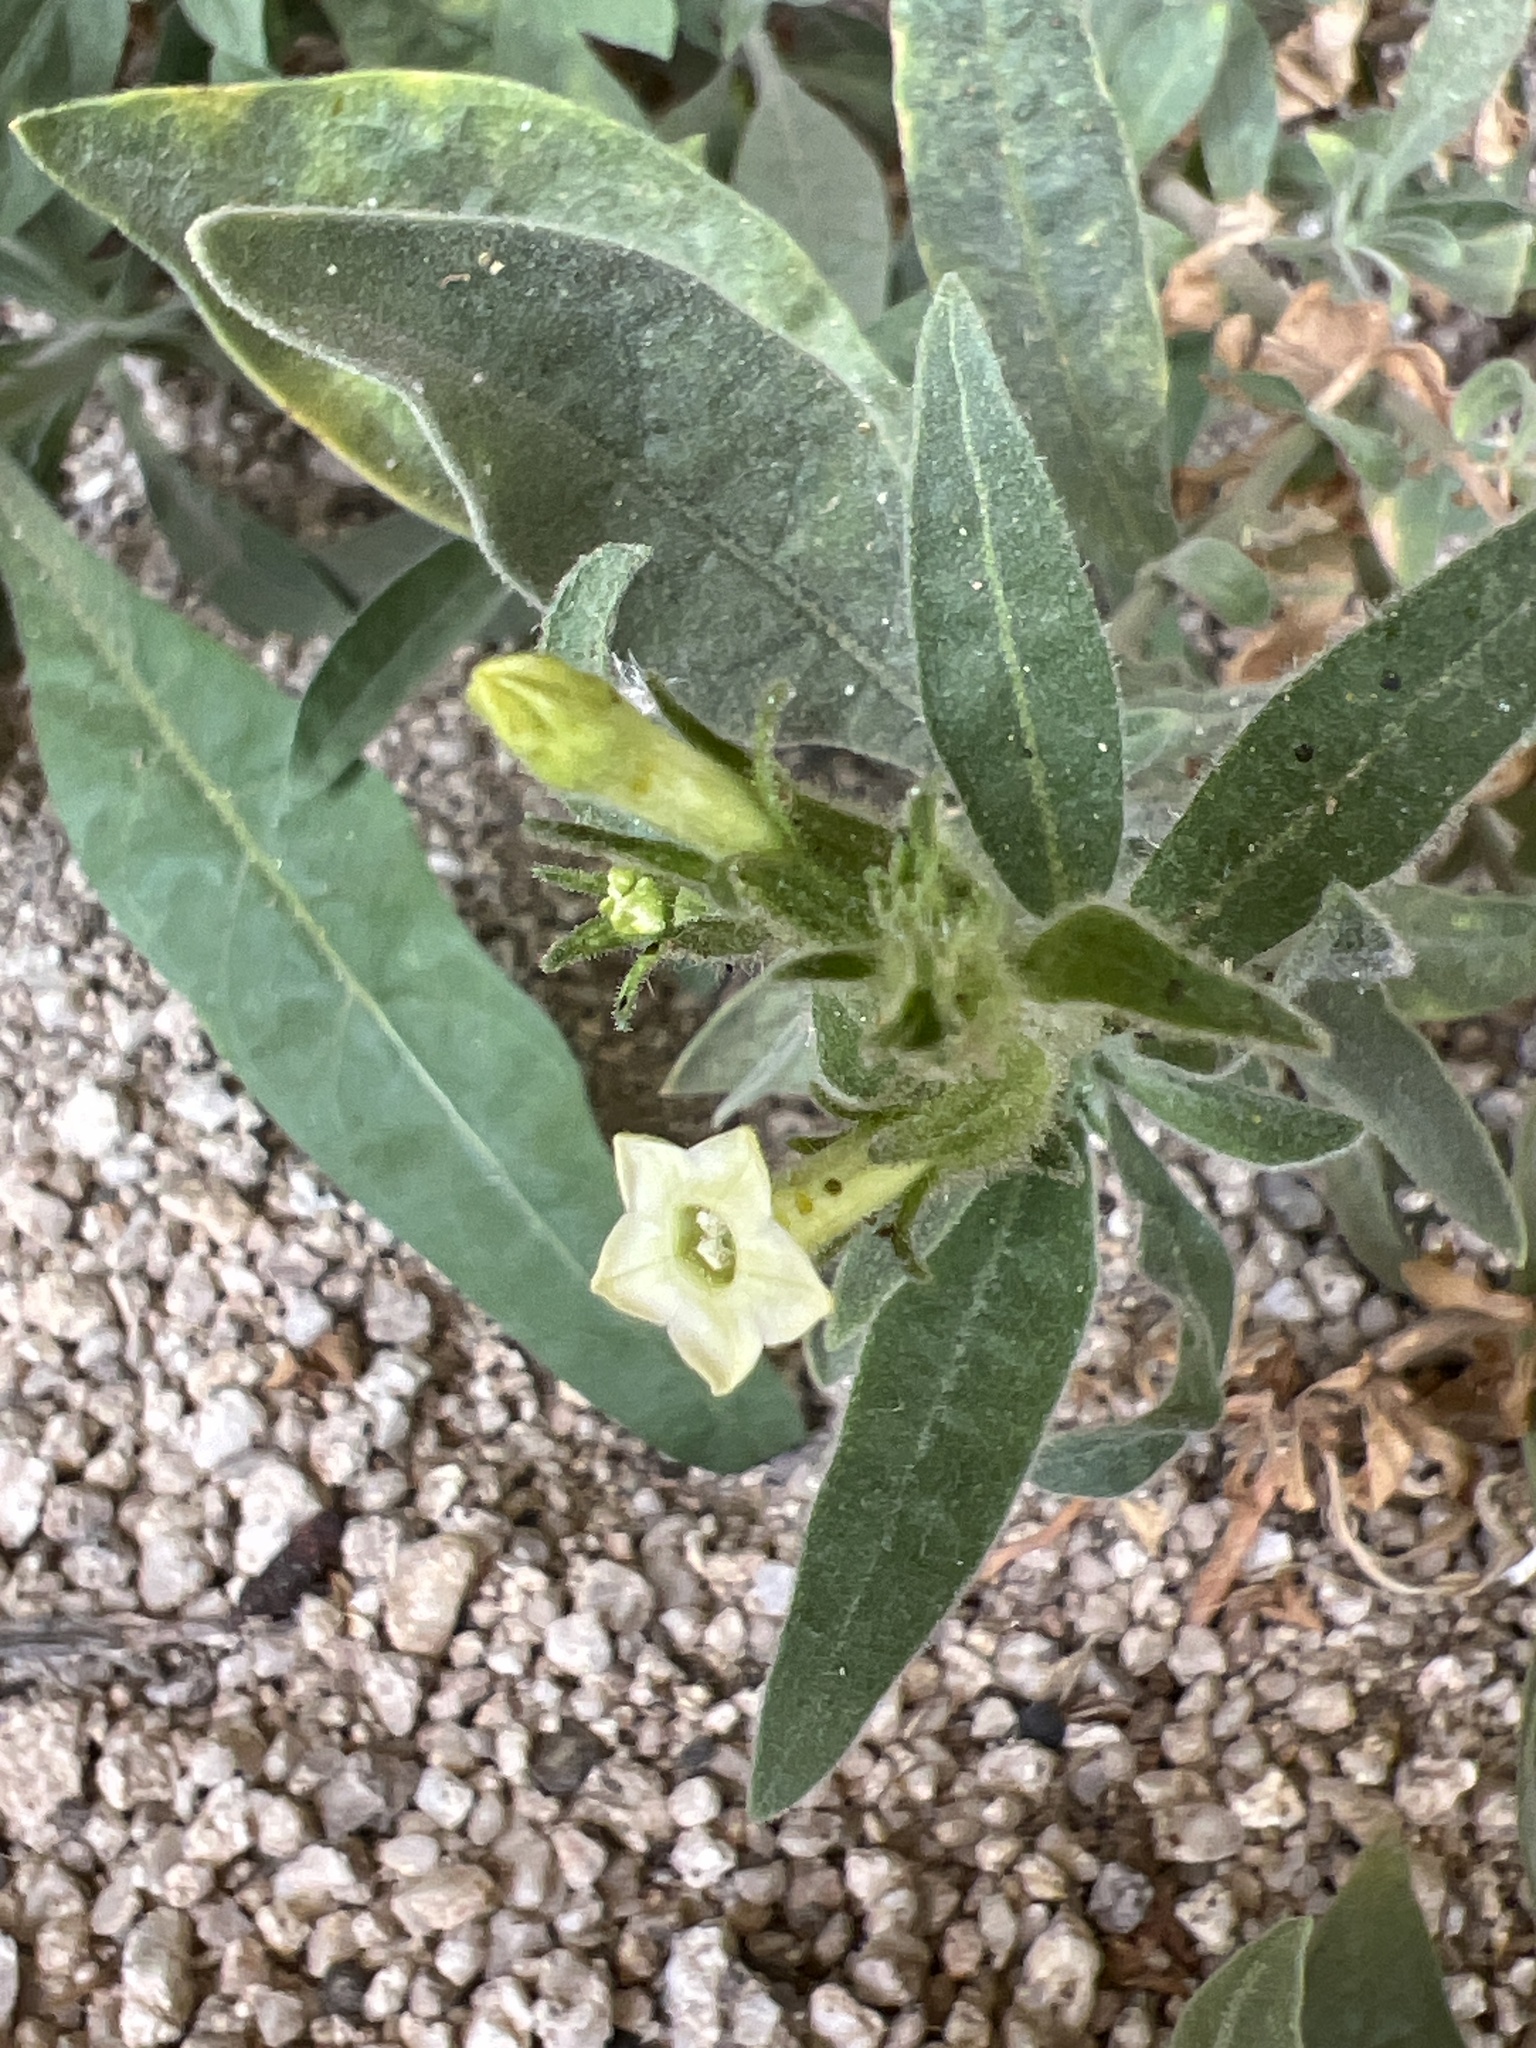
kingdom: Plantae
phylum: Tracheophyta
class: Magnoliopsida
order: Solanales
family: Solanaceae
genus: Nicotiana
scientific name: Nicotiana obtusifolia
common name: Desert tobacco
